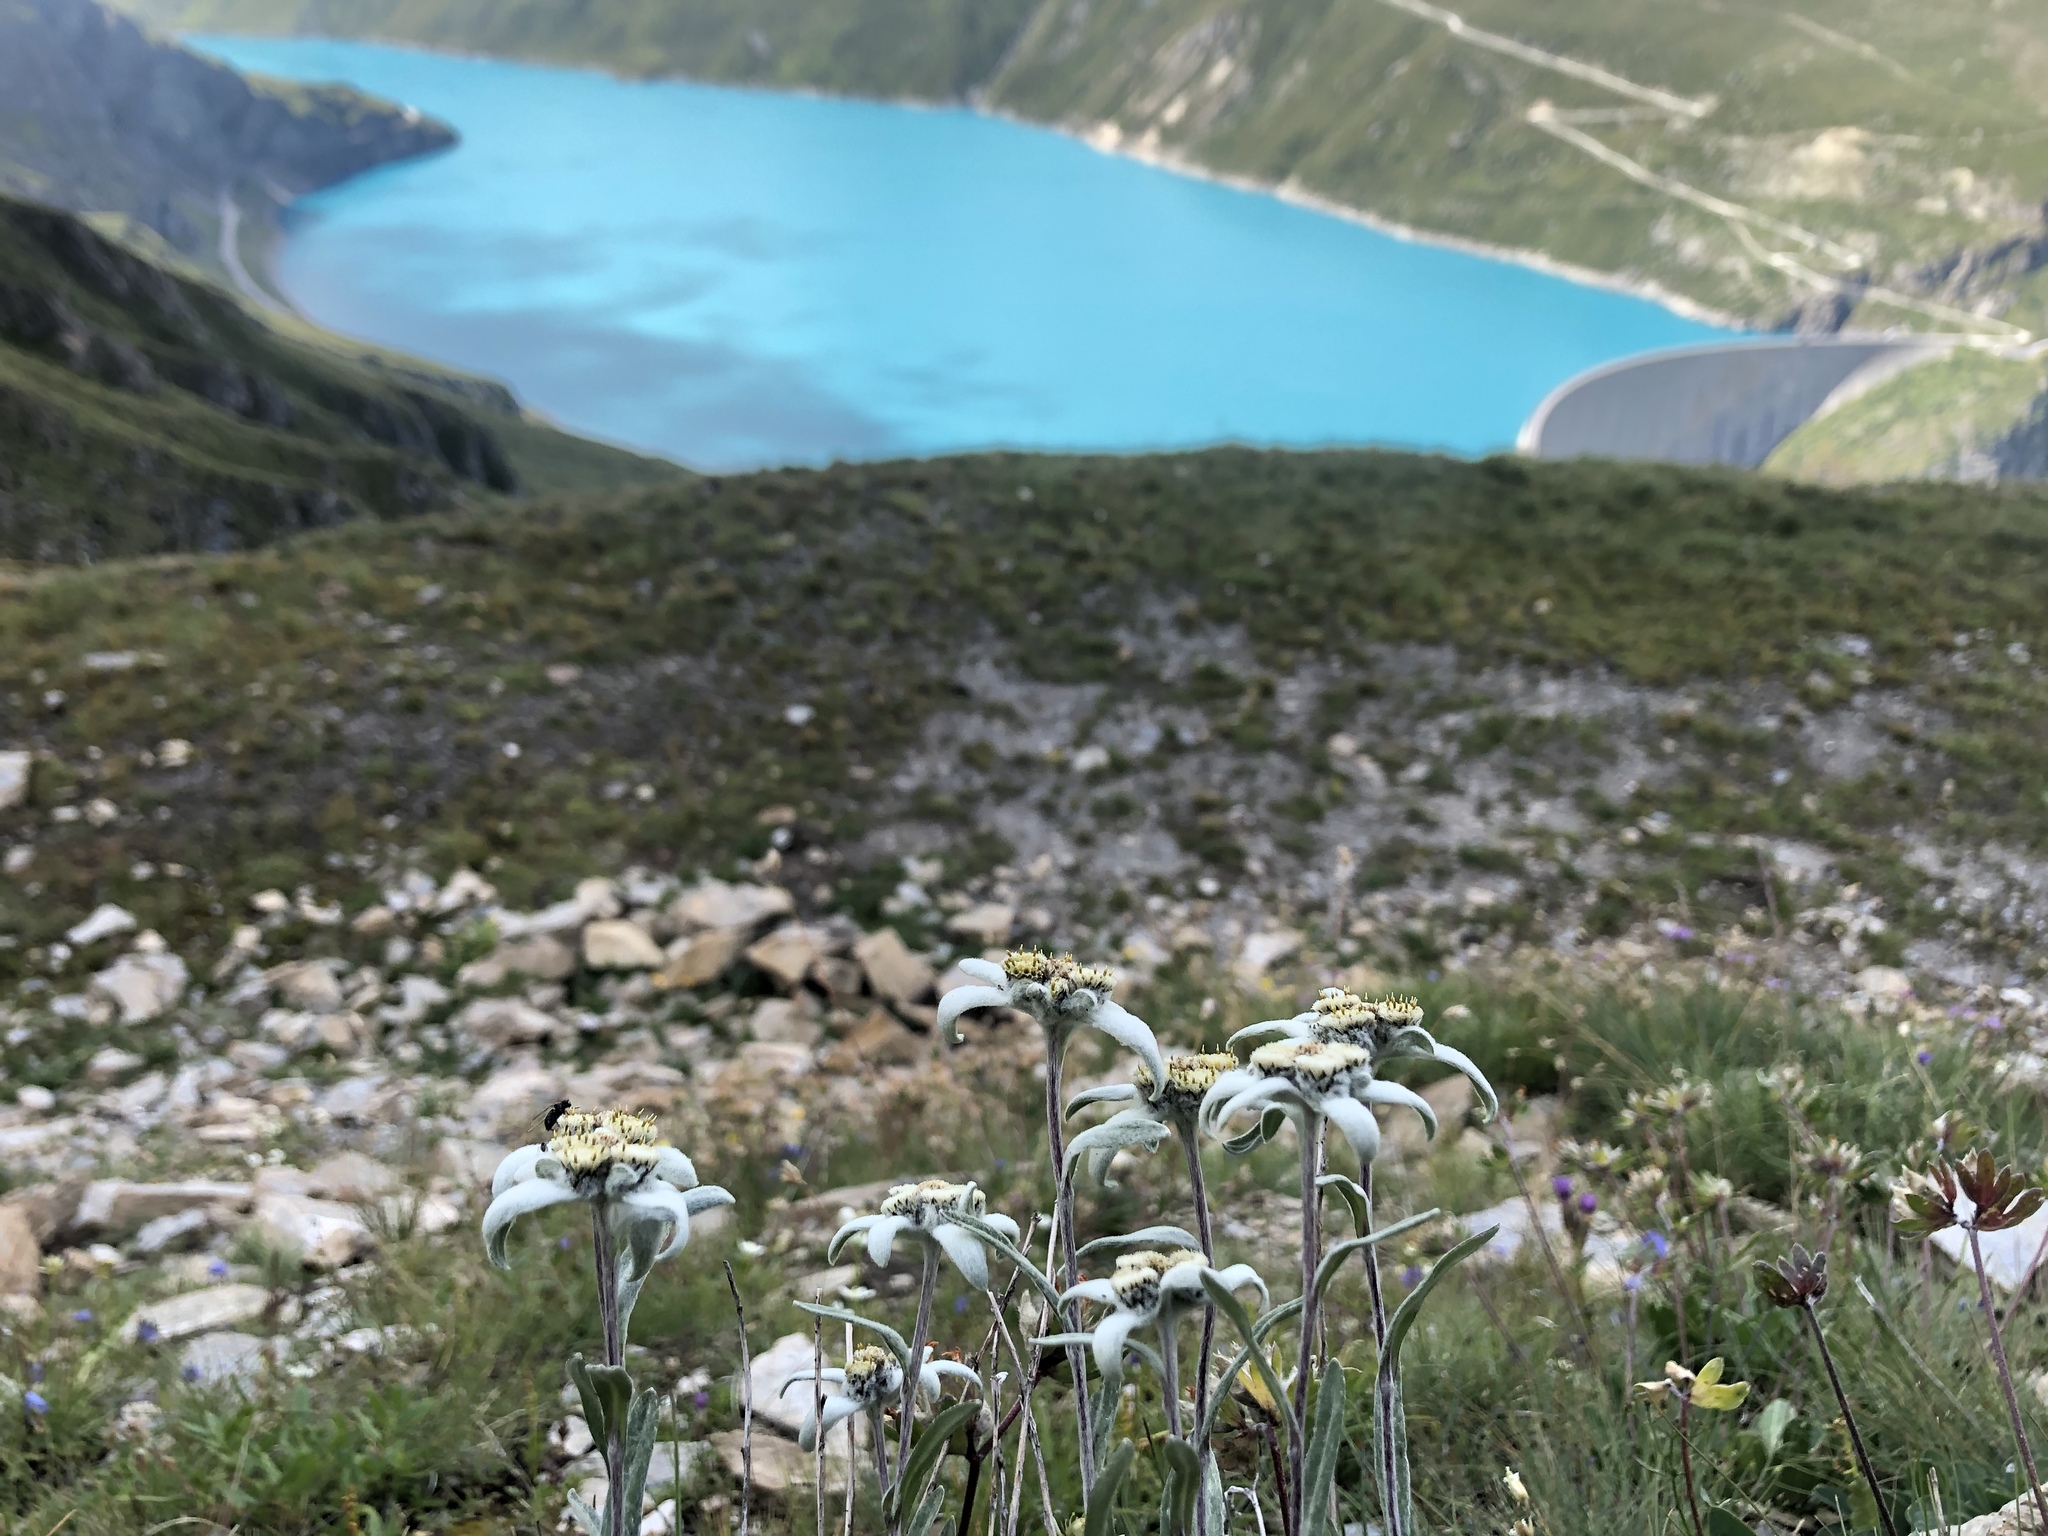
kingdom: Plantae
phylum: Tracheophyta
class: Magnoliopsida
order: Asterales
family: Asteraceae
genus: Leontopodium
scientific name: Leontopodium nivale
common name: Edelweiss
